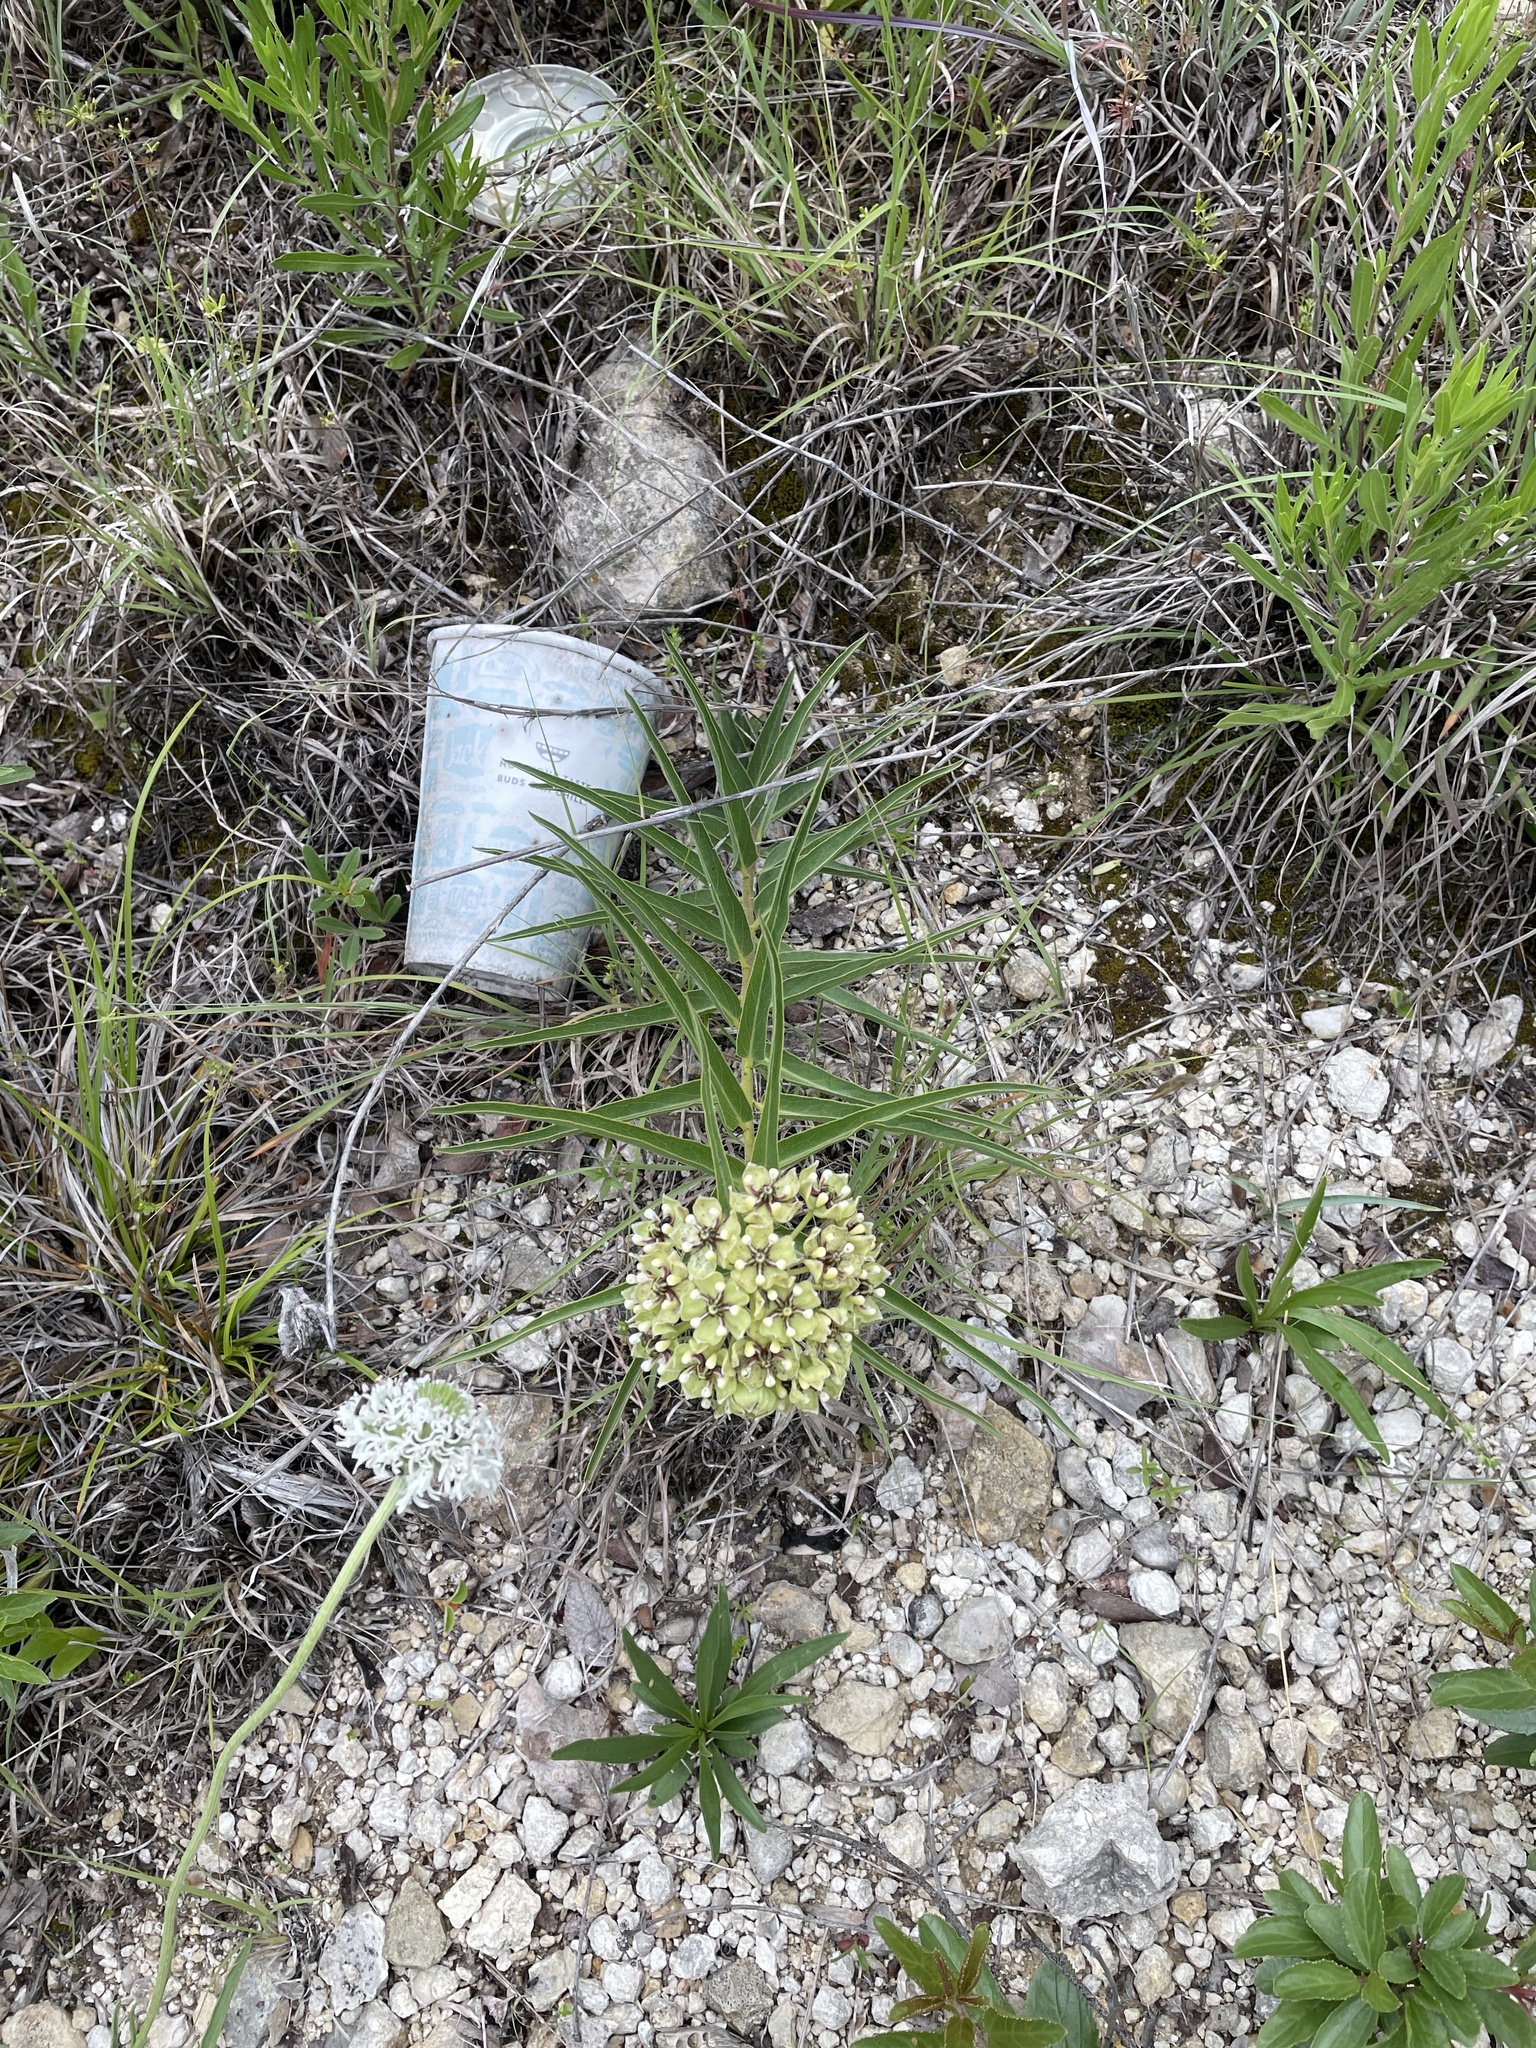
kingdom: Plantae
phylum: Tracheophyta
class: Magnoliopsida
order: Gentianales
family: Apocynaceae
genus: Asclepias
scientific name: Asclepias asperula
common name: Antelope horns
